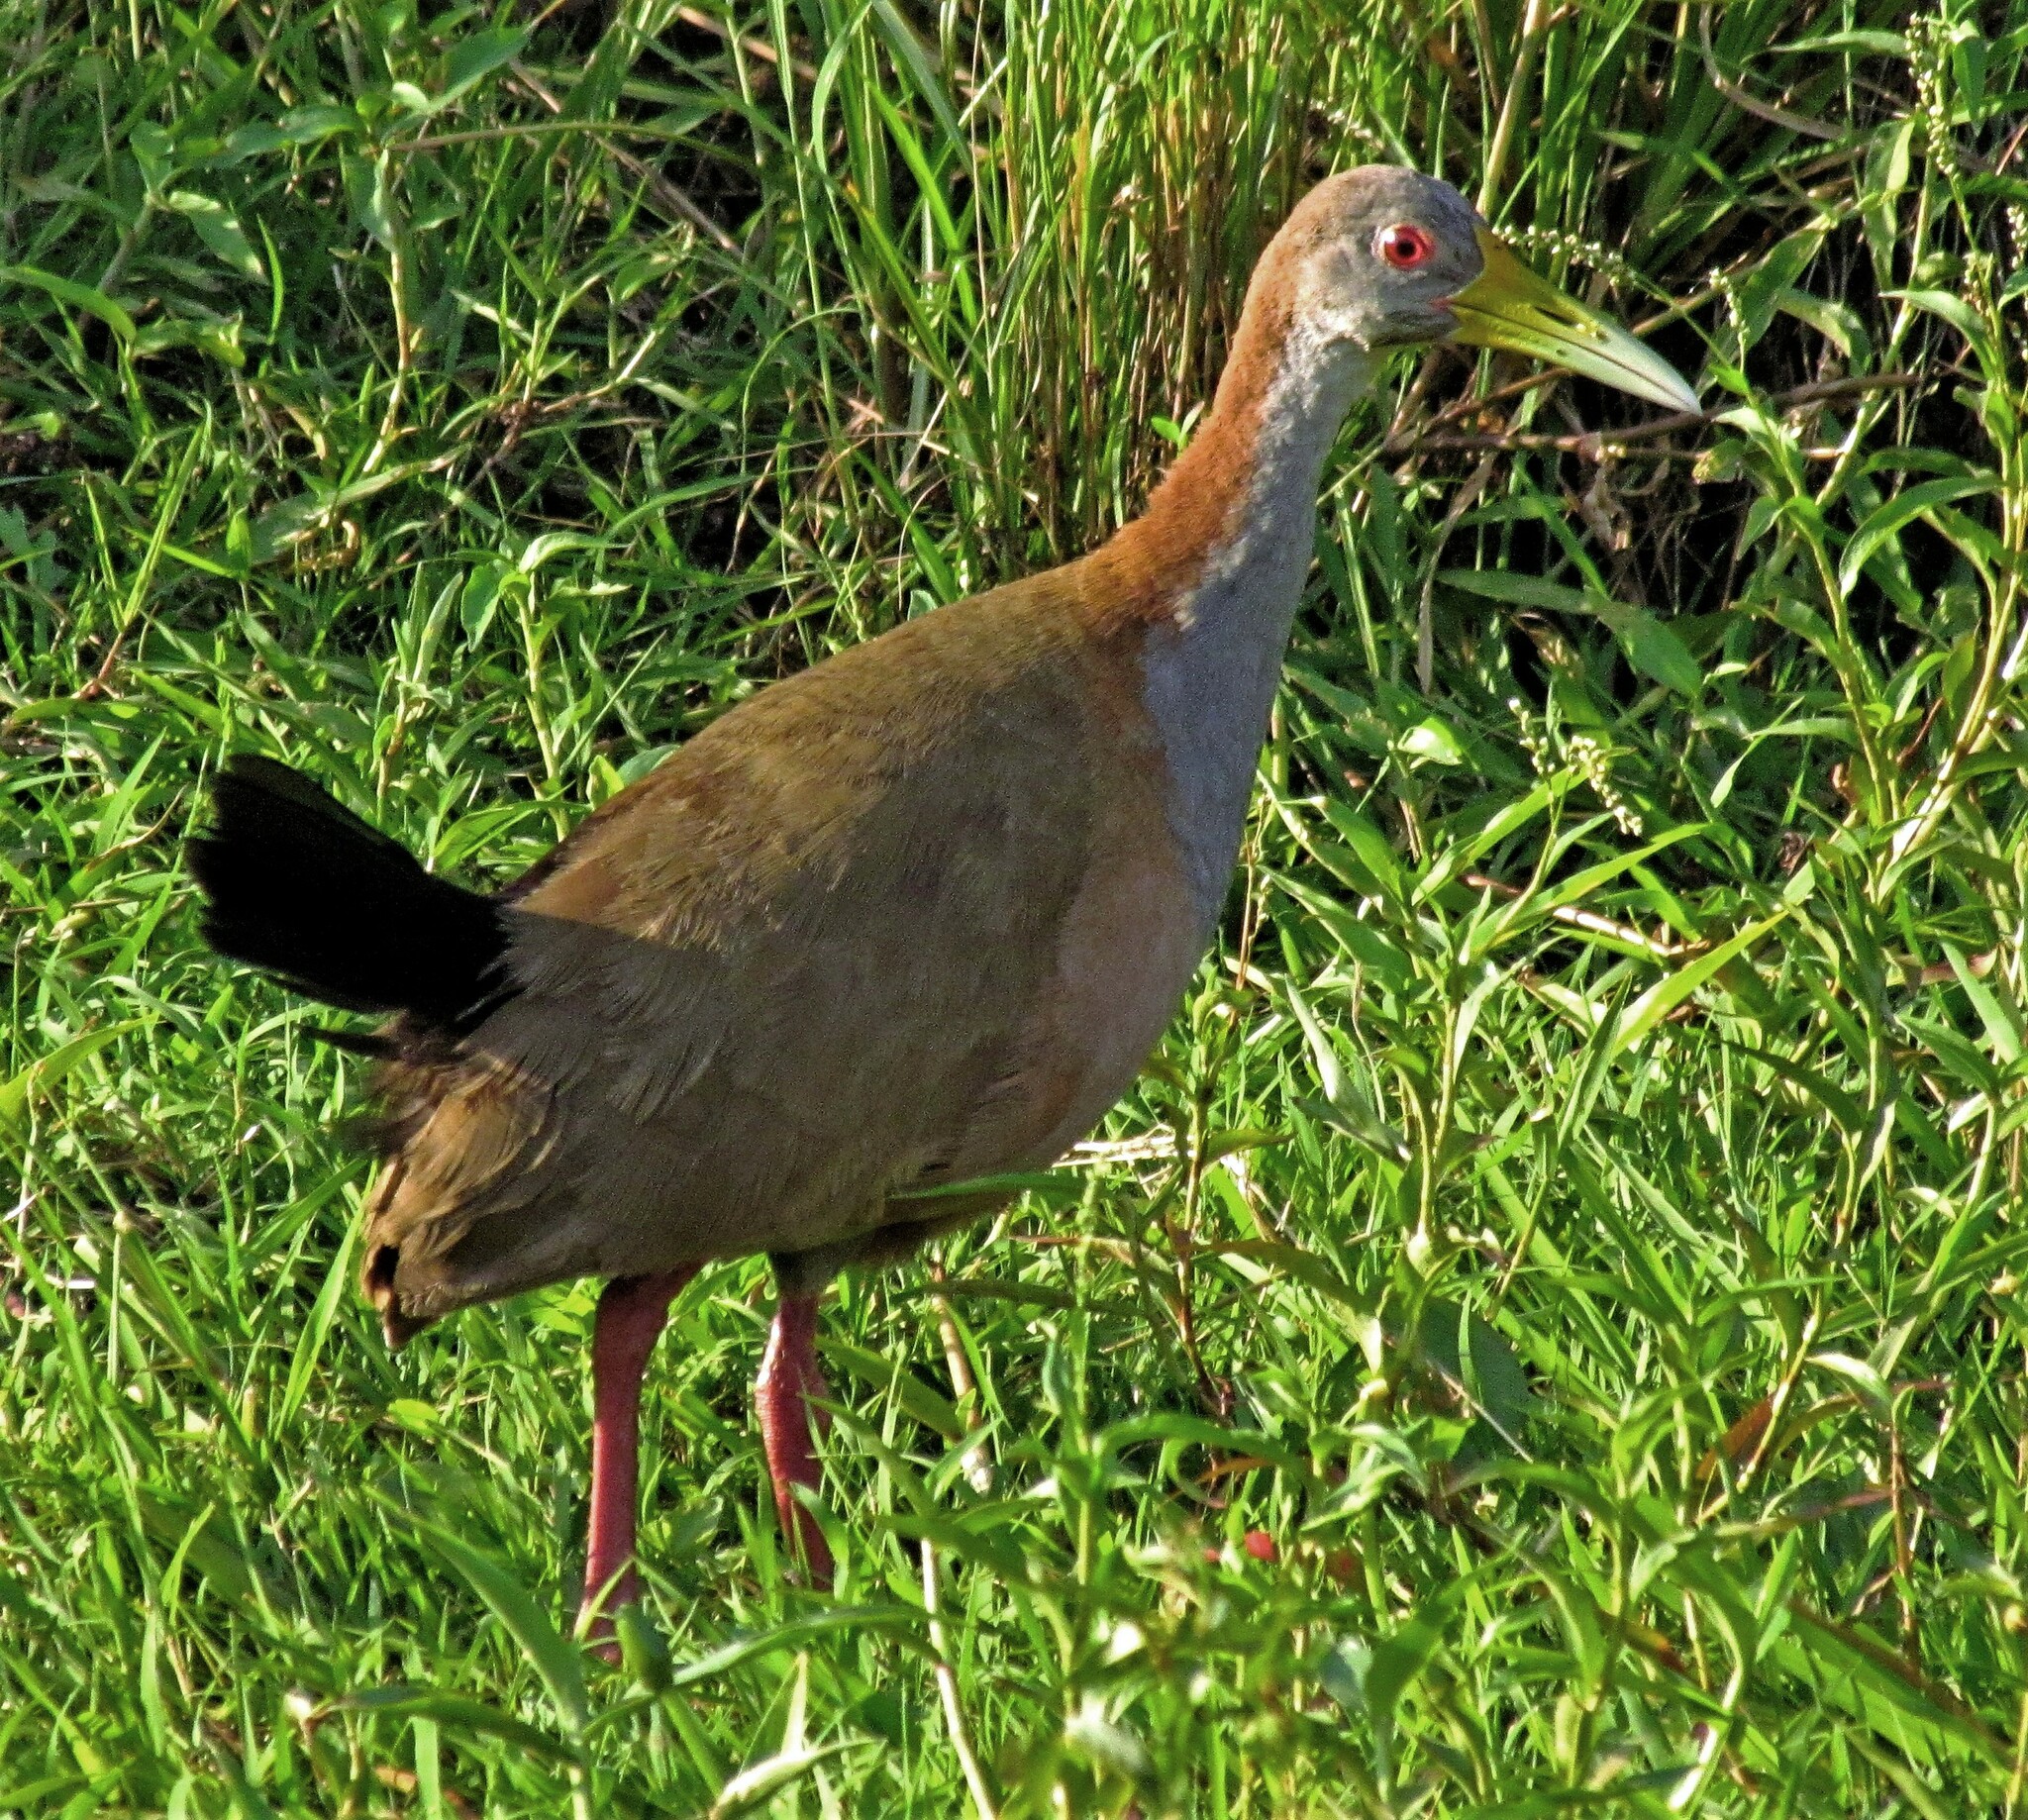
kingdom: Animalia
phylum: Chordata
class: Aves
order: Gruiformes
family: Rallidae
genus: Aramides
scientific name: Aramides ypecaha
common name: Giant wood rail
